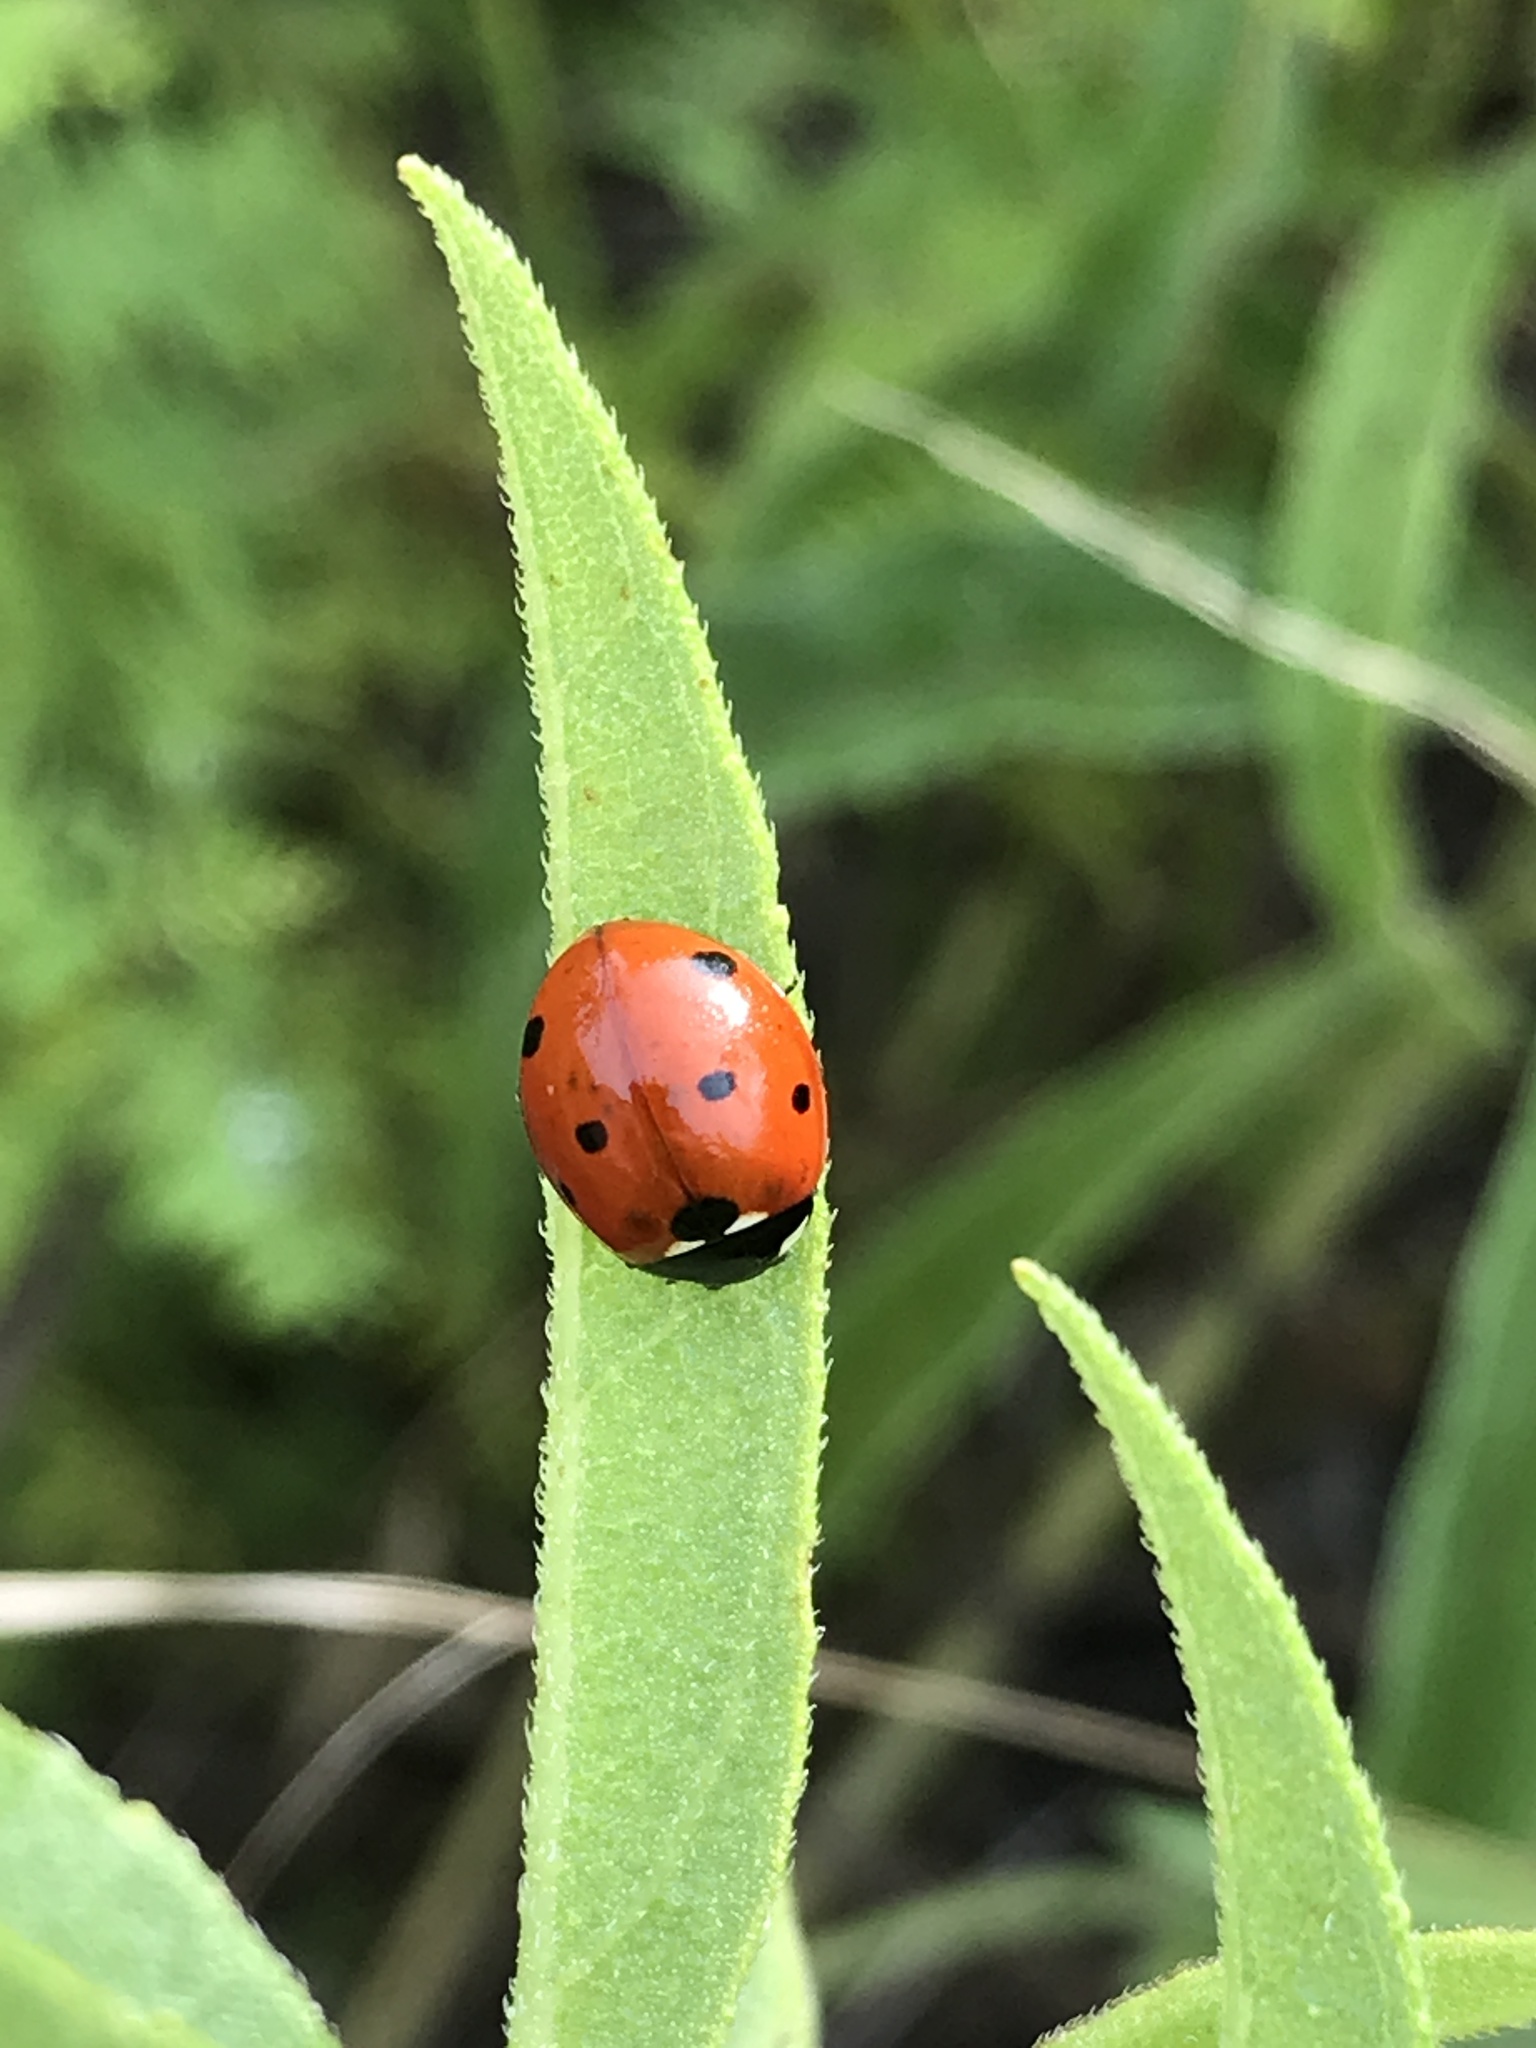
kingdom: Animalia
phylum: Arthropoda
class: Insecta
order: Coleoptera
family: Coccinellidae
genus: Coccinella
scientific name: Coccinella septempunctata
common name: Sevenspotted lady beetle
